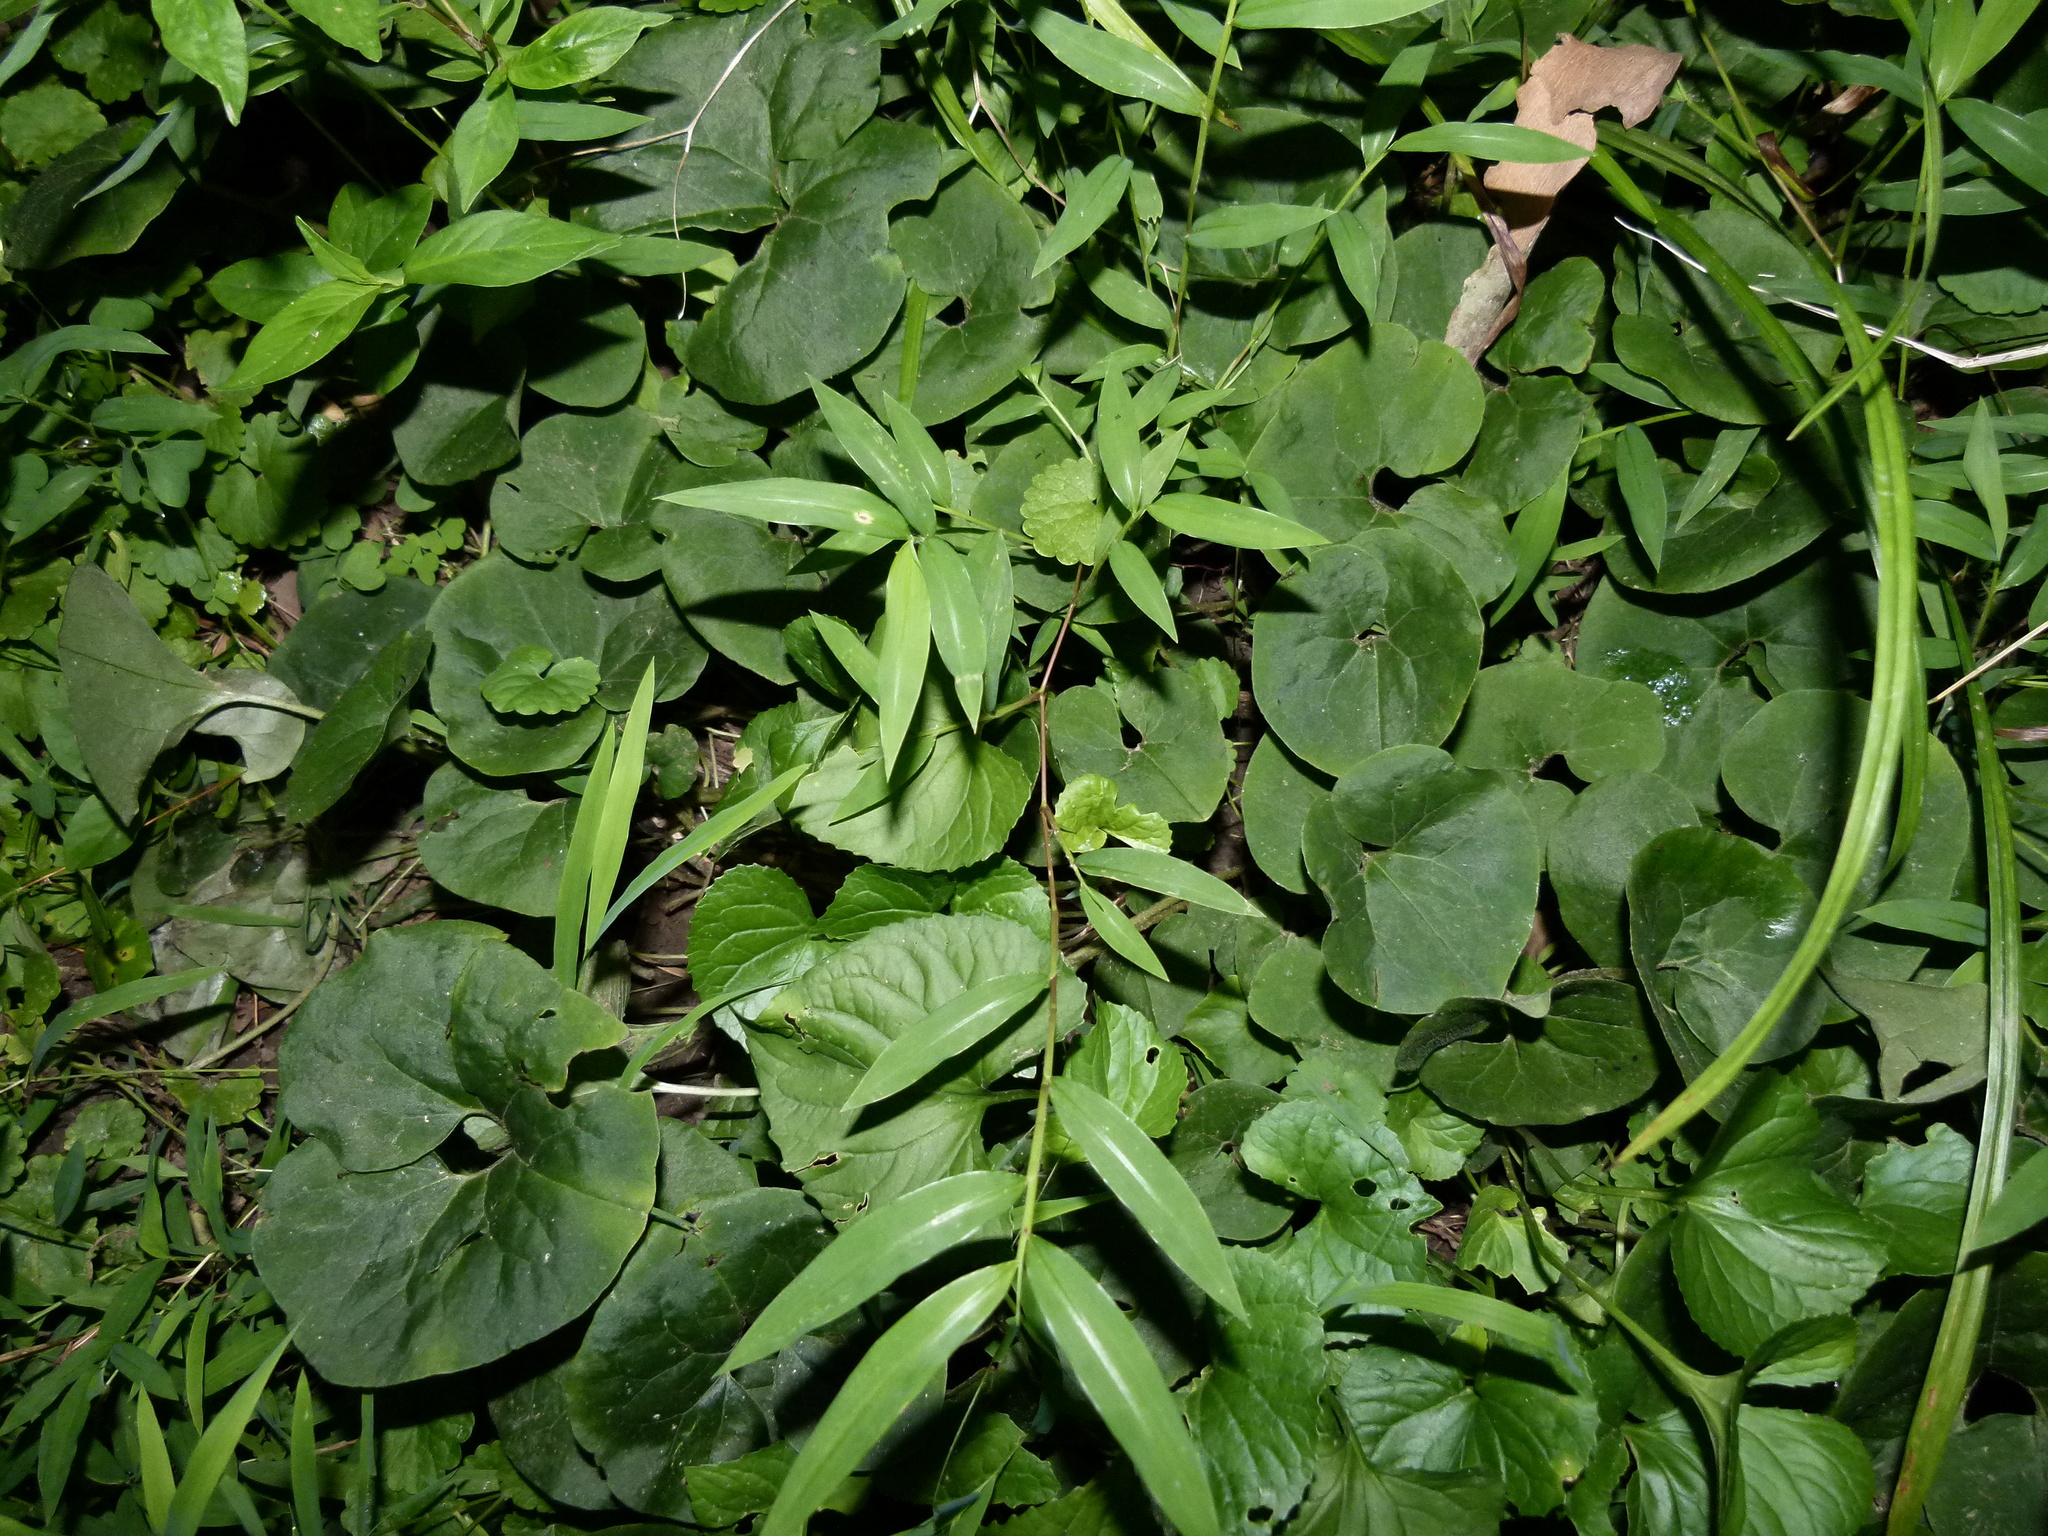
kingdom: Plantae
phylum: Tracheophyta
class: Magnoliopsida
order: Piperales
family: Aristolochiaceae
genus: Asarum
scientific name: Asarum canadense
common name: Wild ginger
